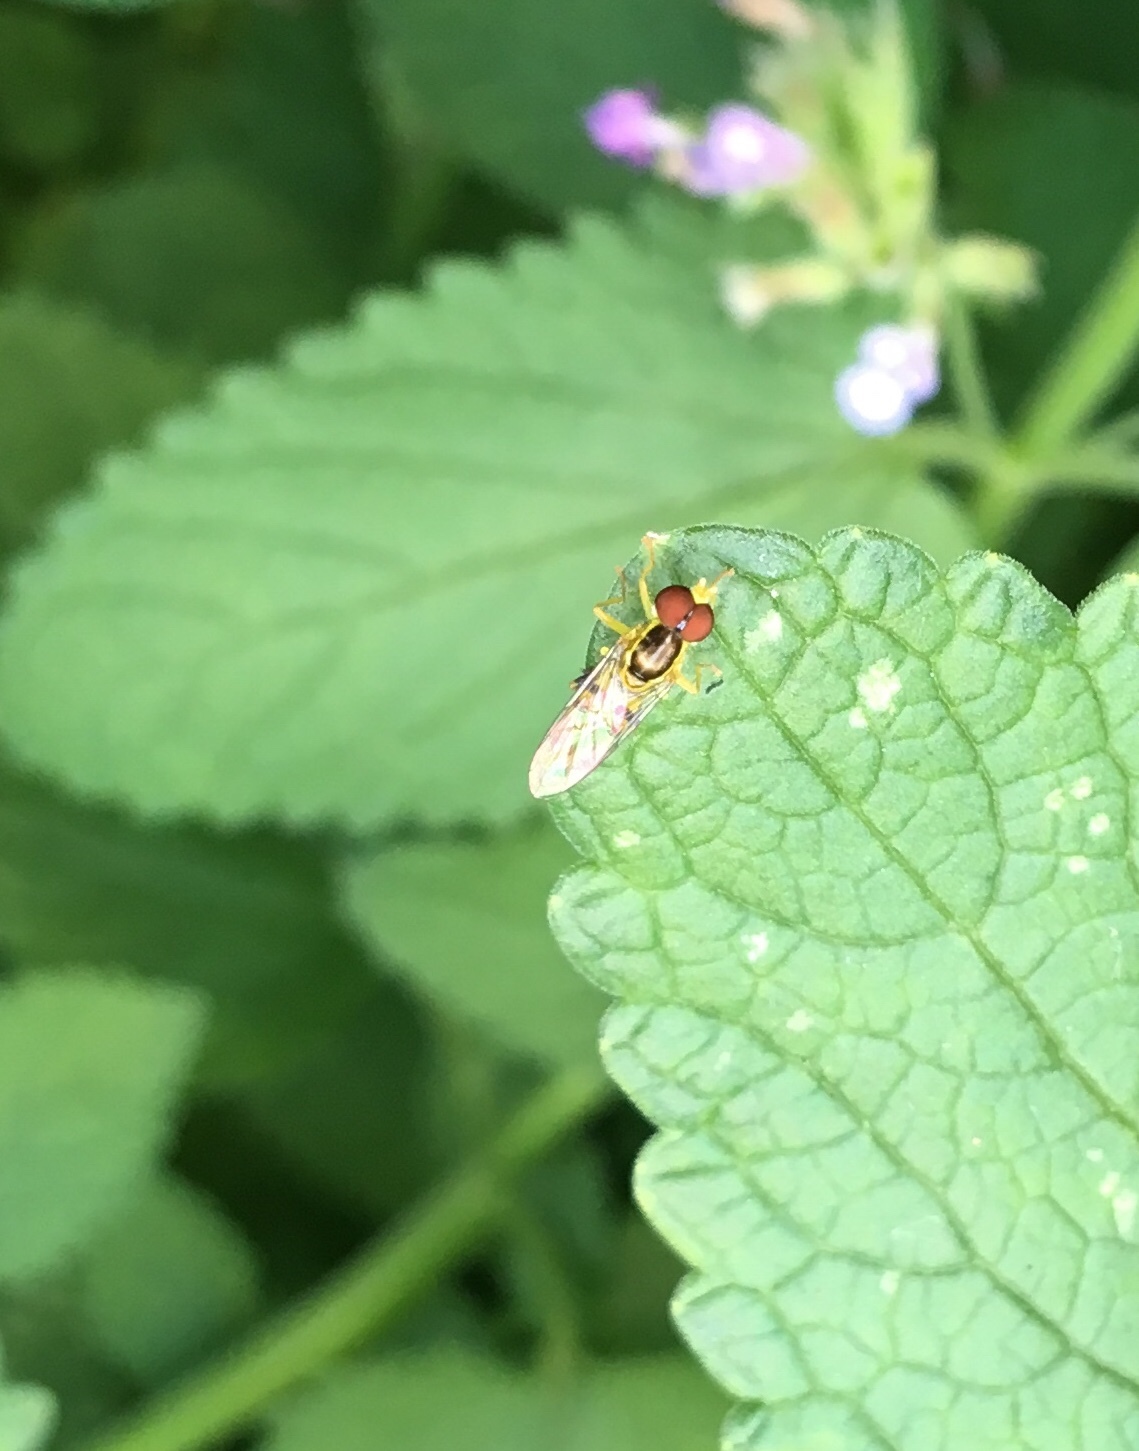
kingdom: Animalia
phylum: Arthropoda
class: Insecta
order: Diptera
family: Syrphidae
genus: Toxomerus
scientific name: Toxomerus geminatus
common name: Eastern calligrapher
